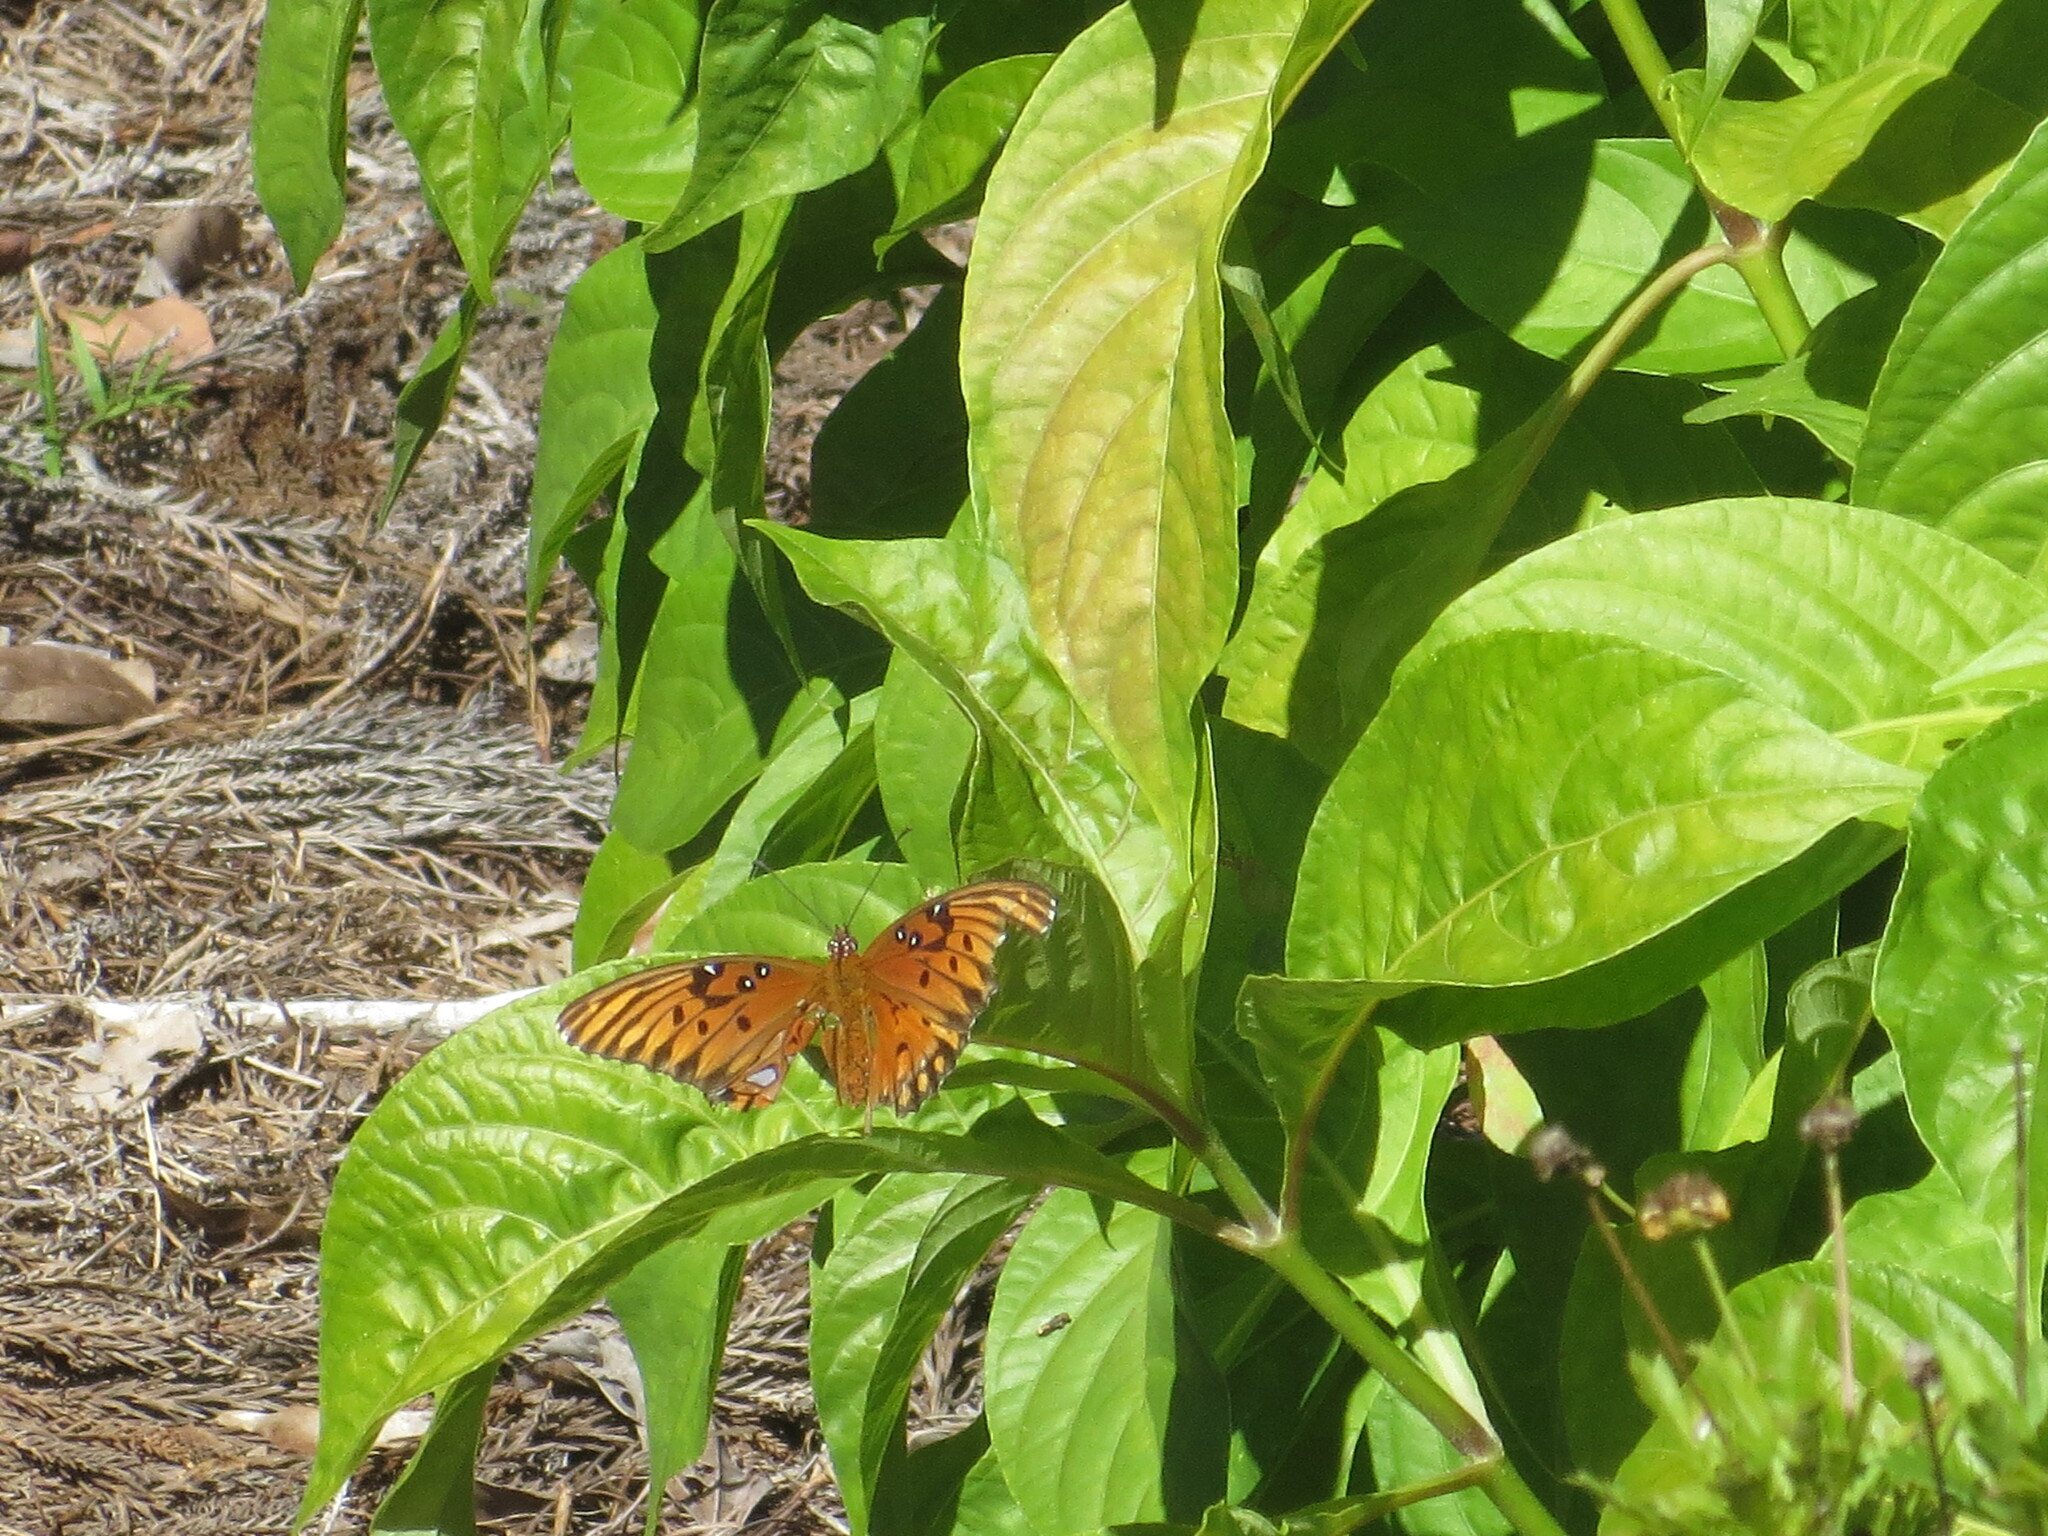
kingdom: Animalia
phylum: Arthropoda
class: Insecta
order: Lepidoptera
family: Nymphalidae
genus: Dione
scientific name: Dione vanillae
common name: Gulf fritillary
